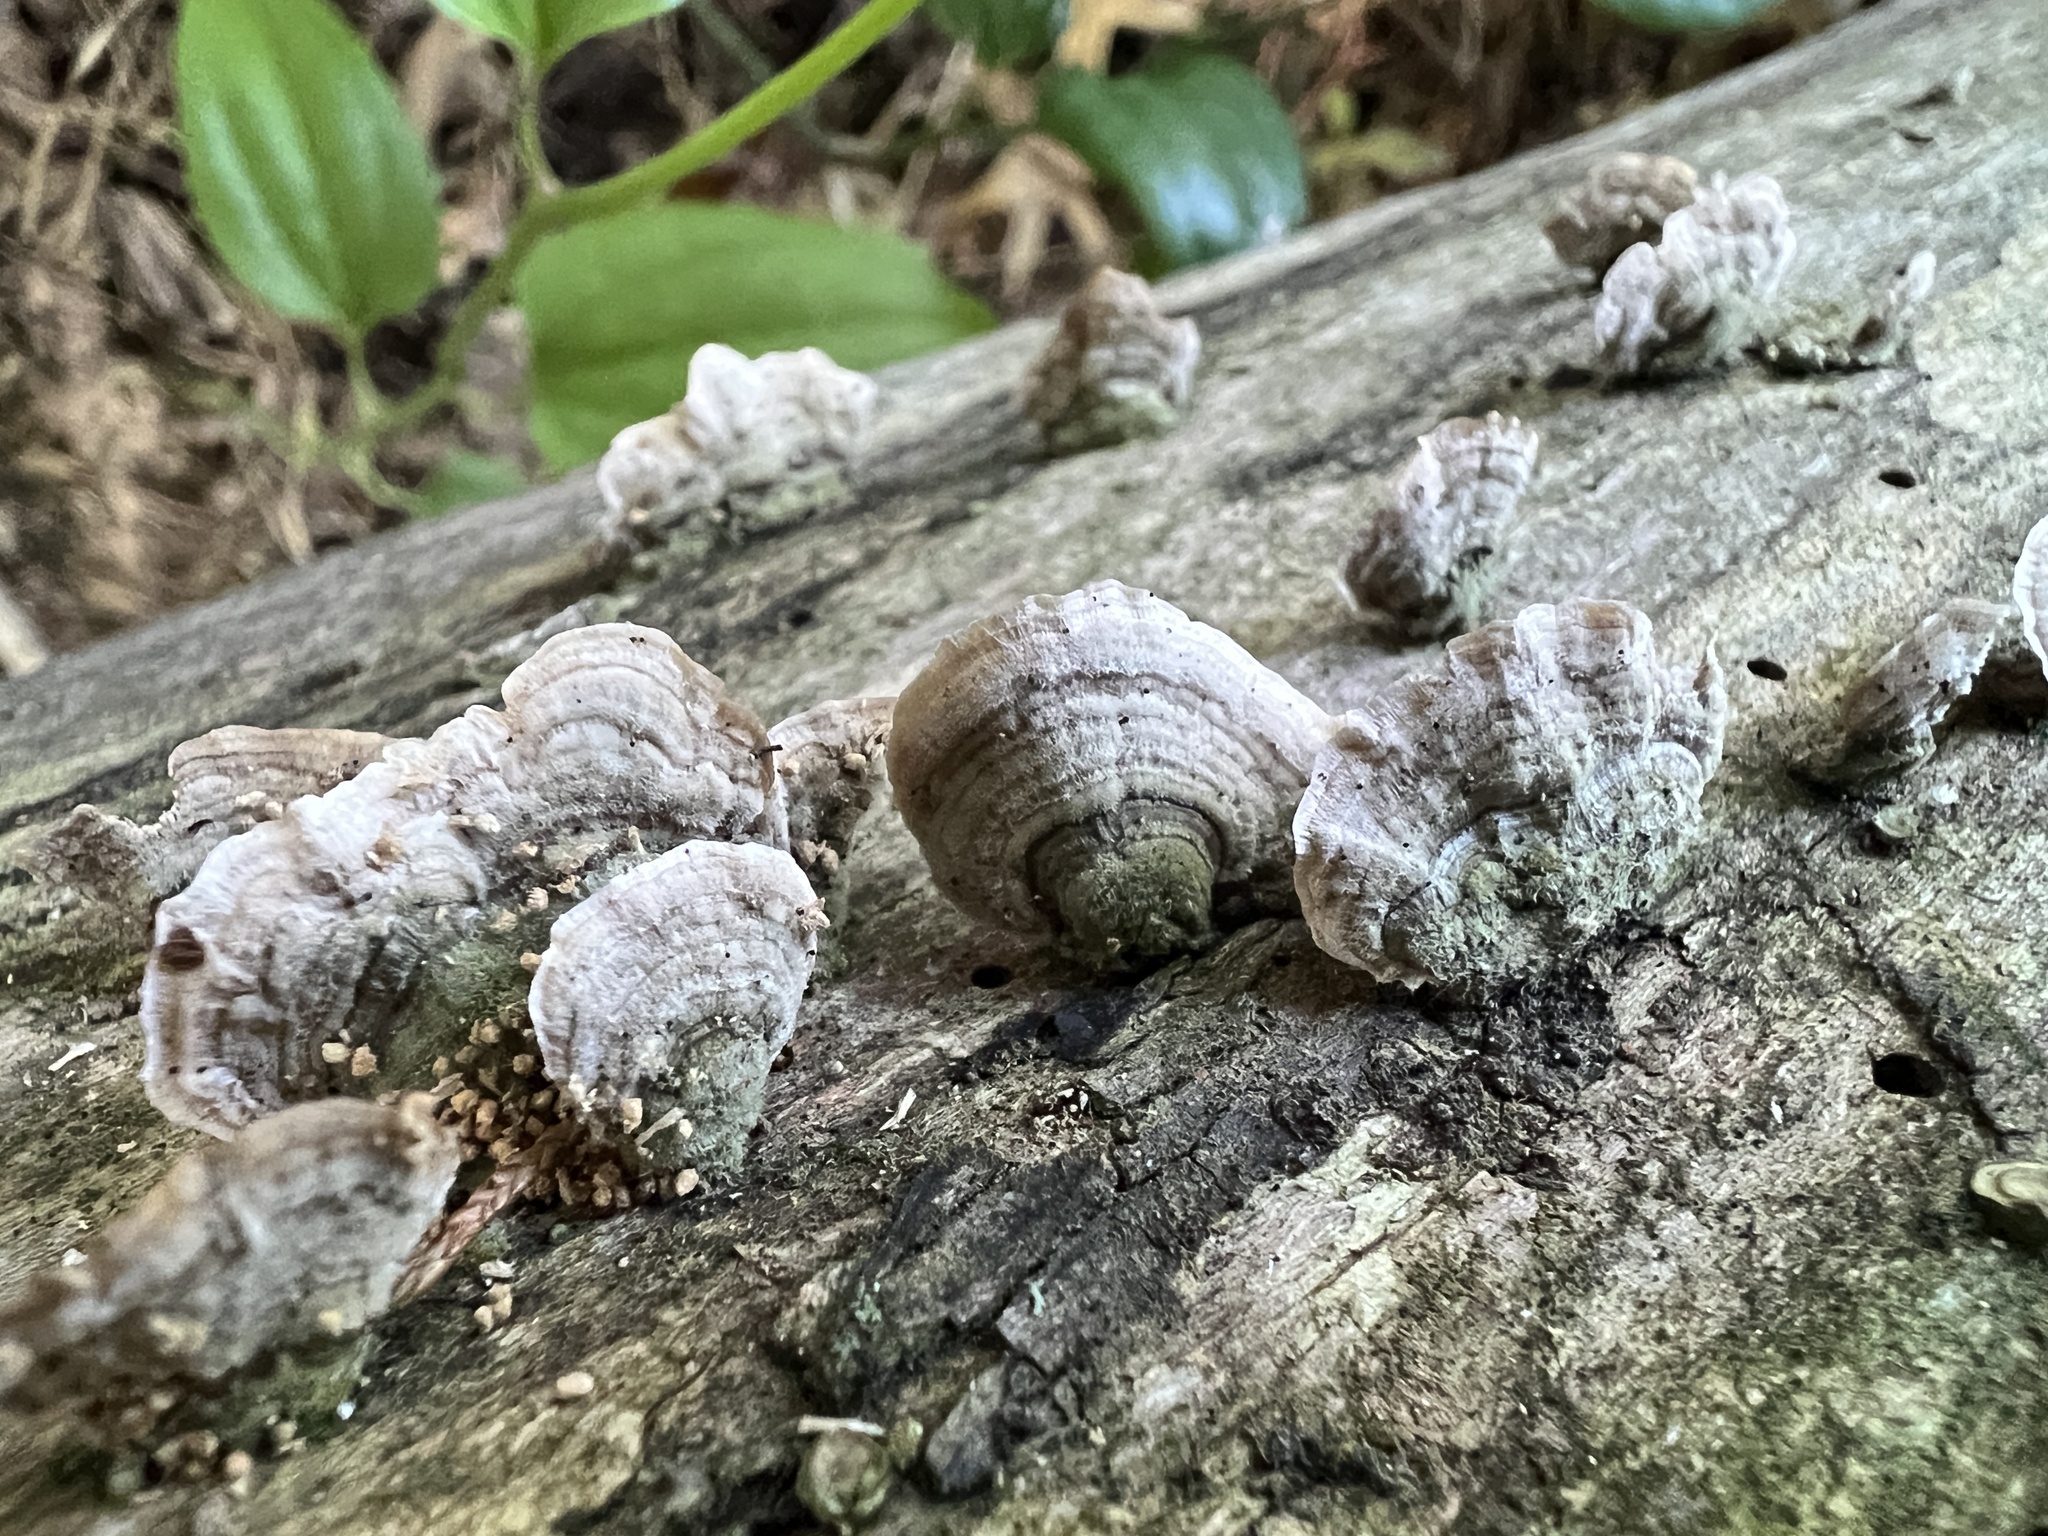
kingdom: Fungi
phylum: Basidiomycota
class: Agaricomycetes
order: Russulales
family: Stereaceae
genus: Stereum
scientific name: Stereum lobatum
